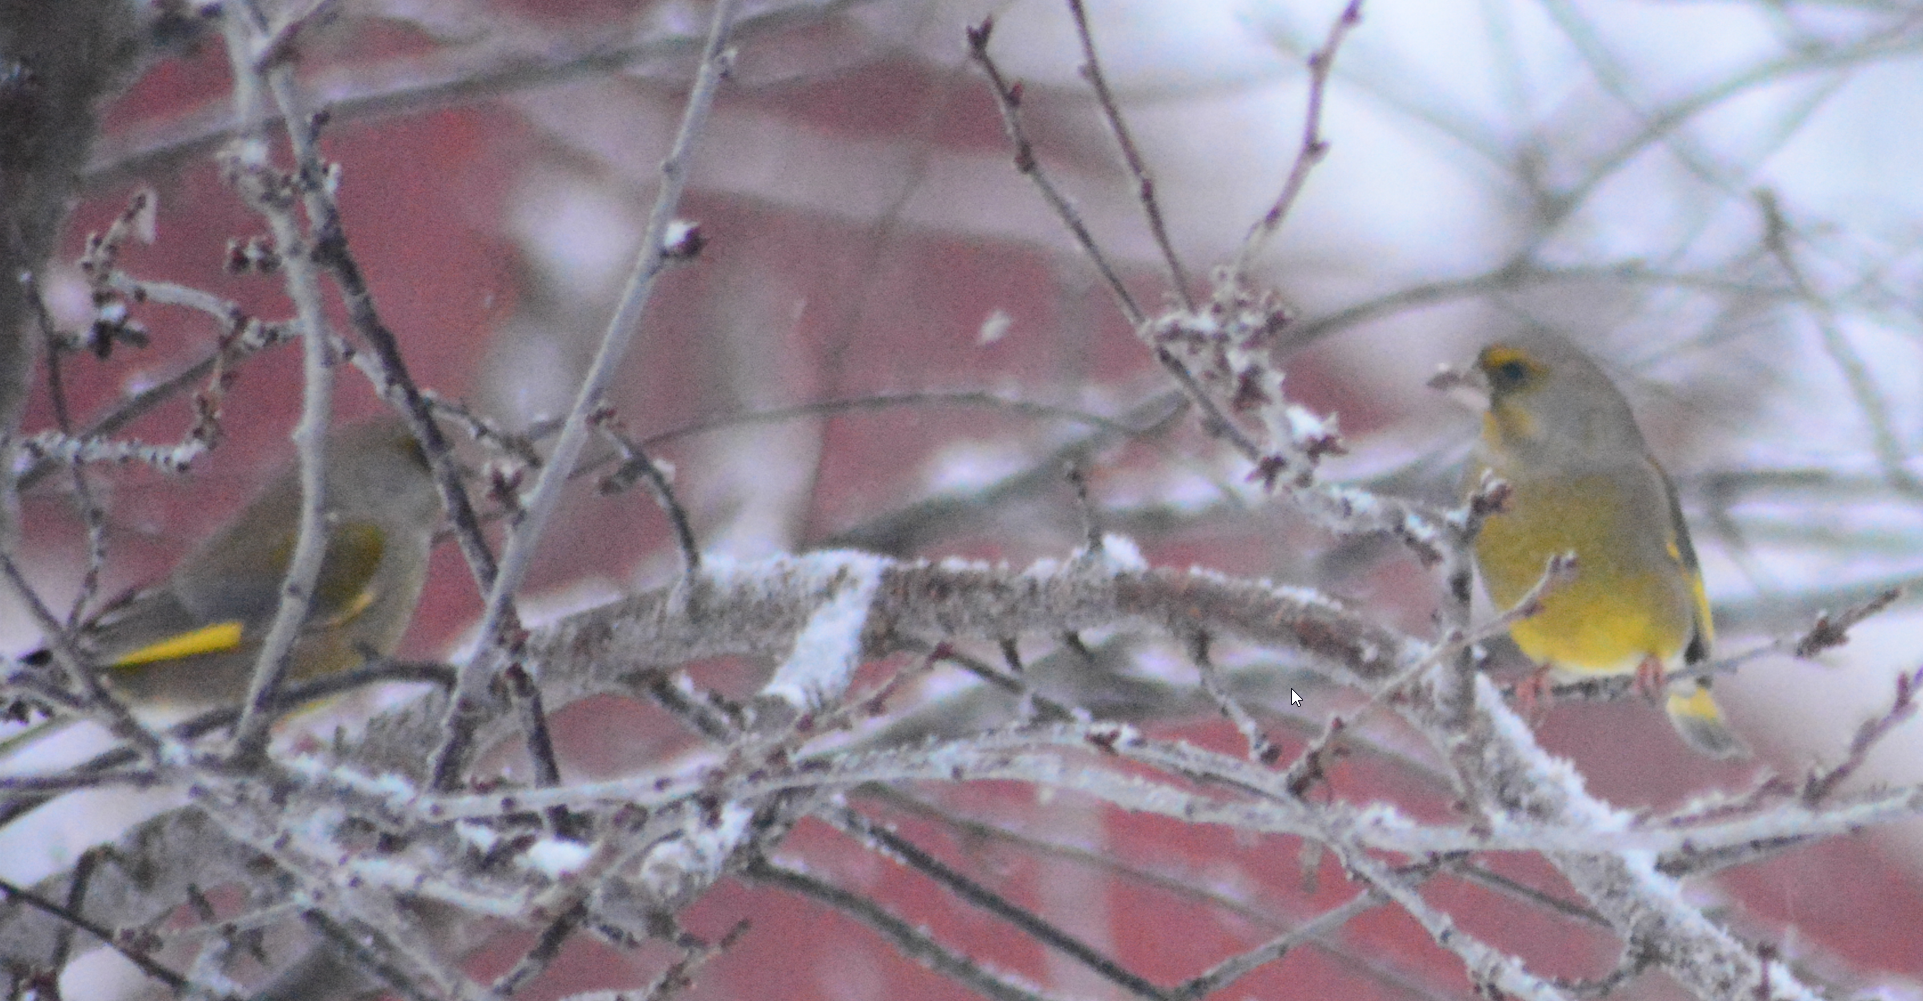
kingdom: Plantae
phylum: Tracheophyta
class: Liliopsida
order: Poales
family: Poaceae
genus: Chloris
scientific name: Chloris chloris
